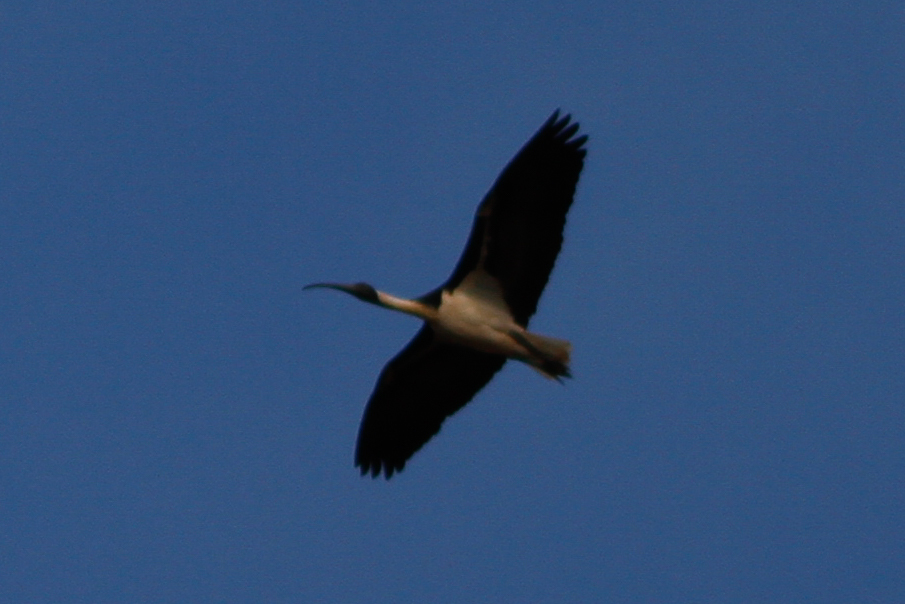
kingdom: Animalia
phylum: Chordata
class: Aves
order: Pelecaniformes
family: Threskiornithidae
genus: Threskiornis
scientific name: Threskiornis spinicollis
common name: Straw-necked ibis
